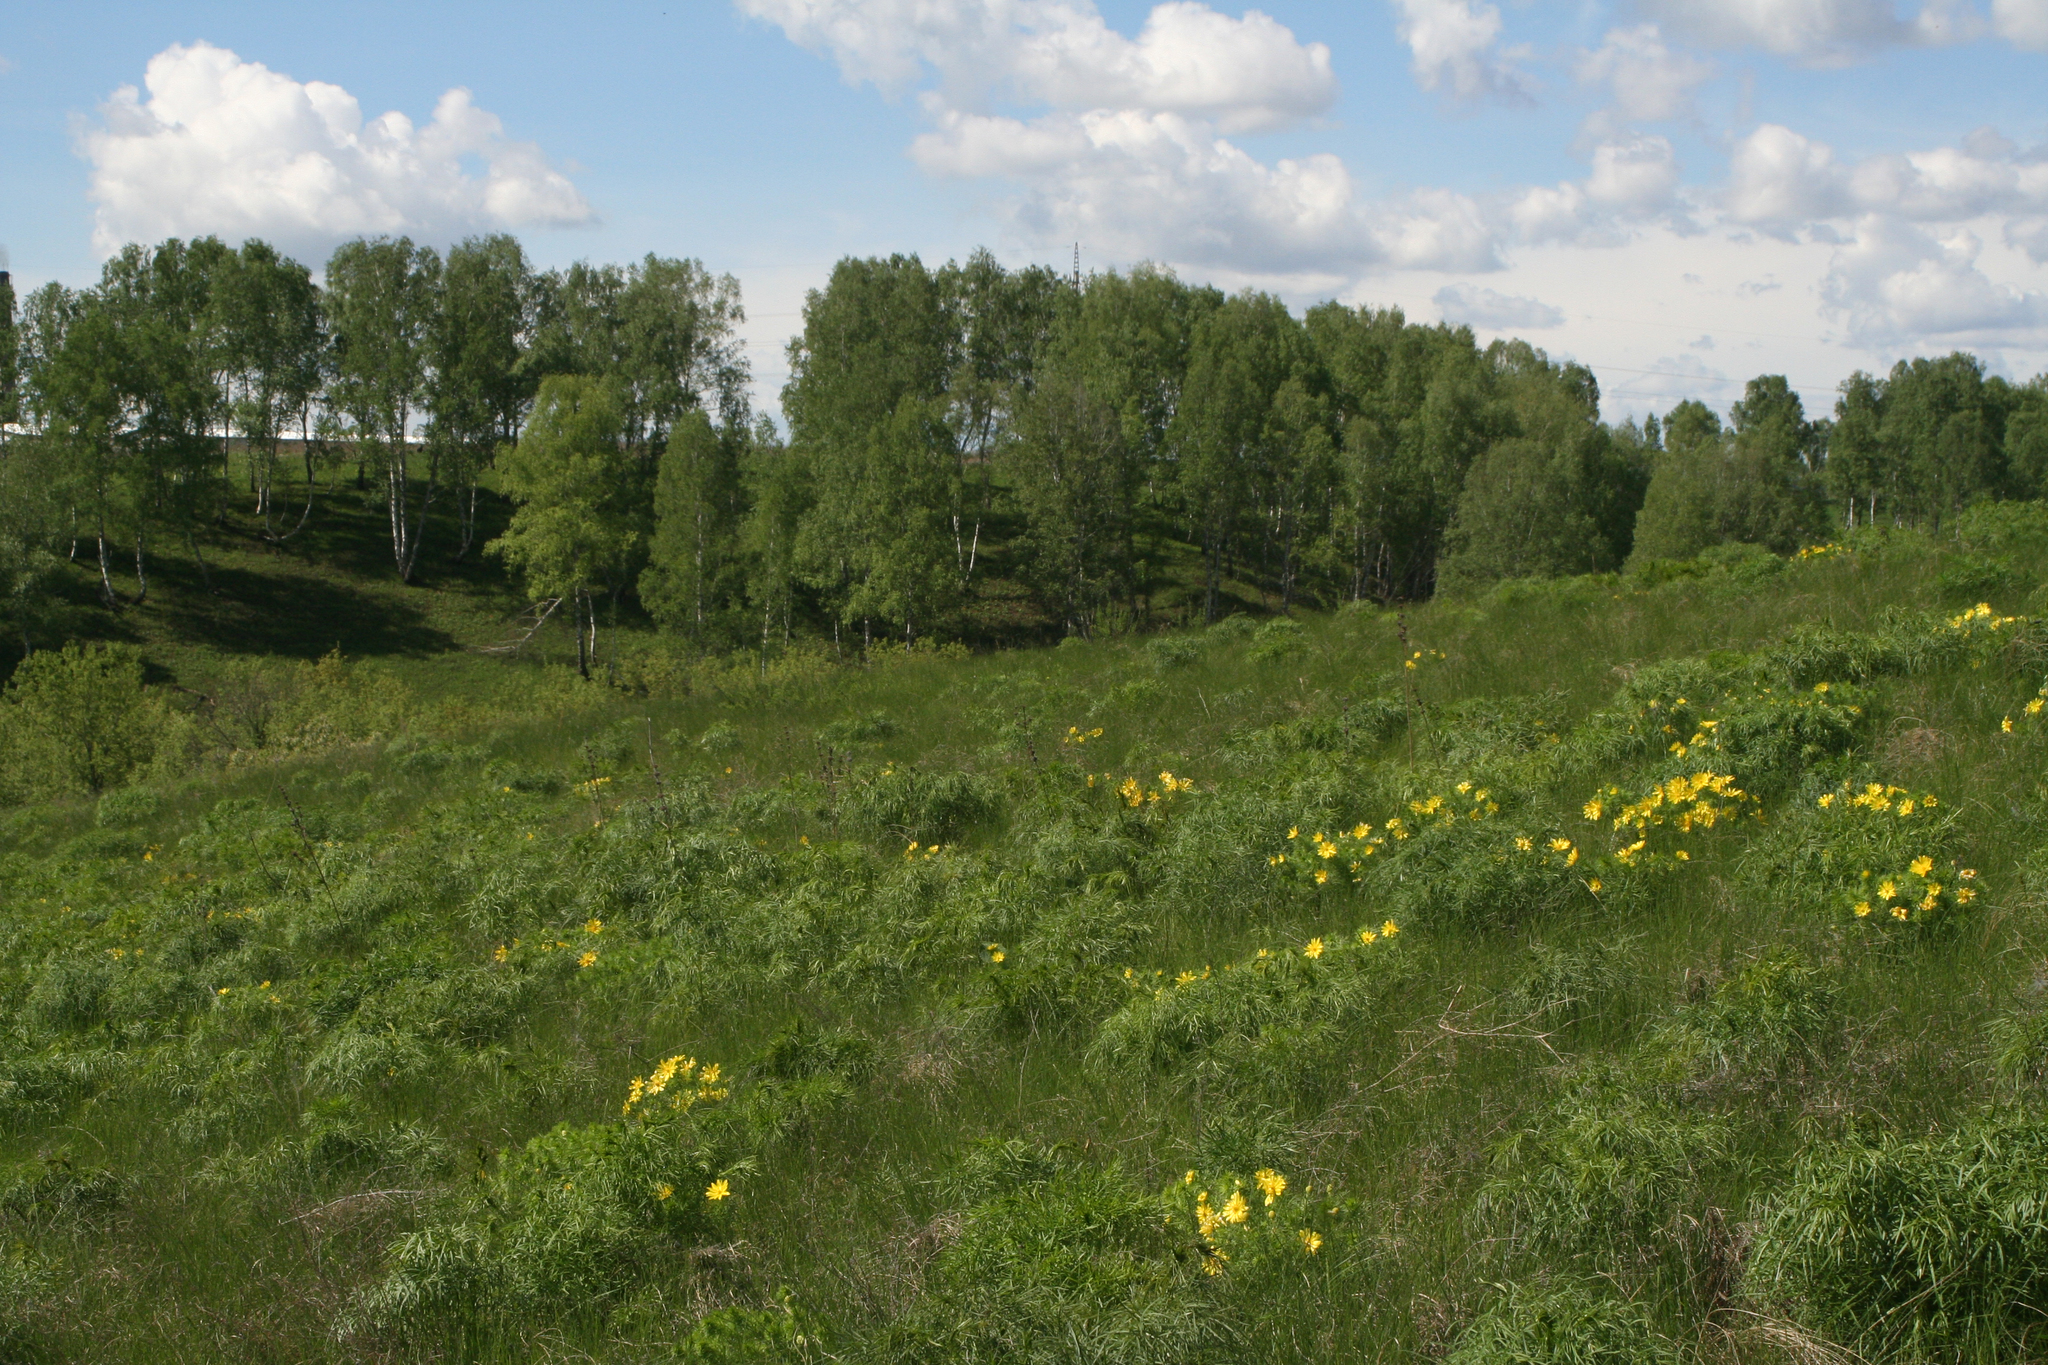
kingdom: Plantae
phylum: Tracheophyta
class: Magnoliopsida
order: Fagales
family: Betulaceae
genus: Betula
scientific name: Betula pendula
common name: Silver birch
